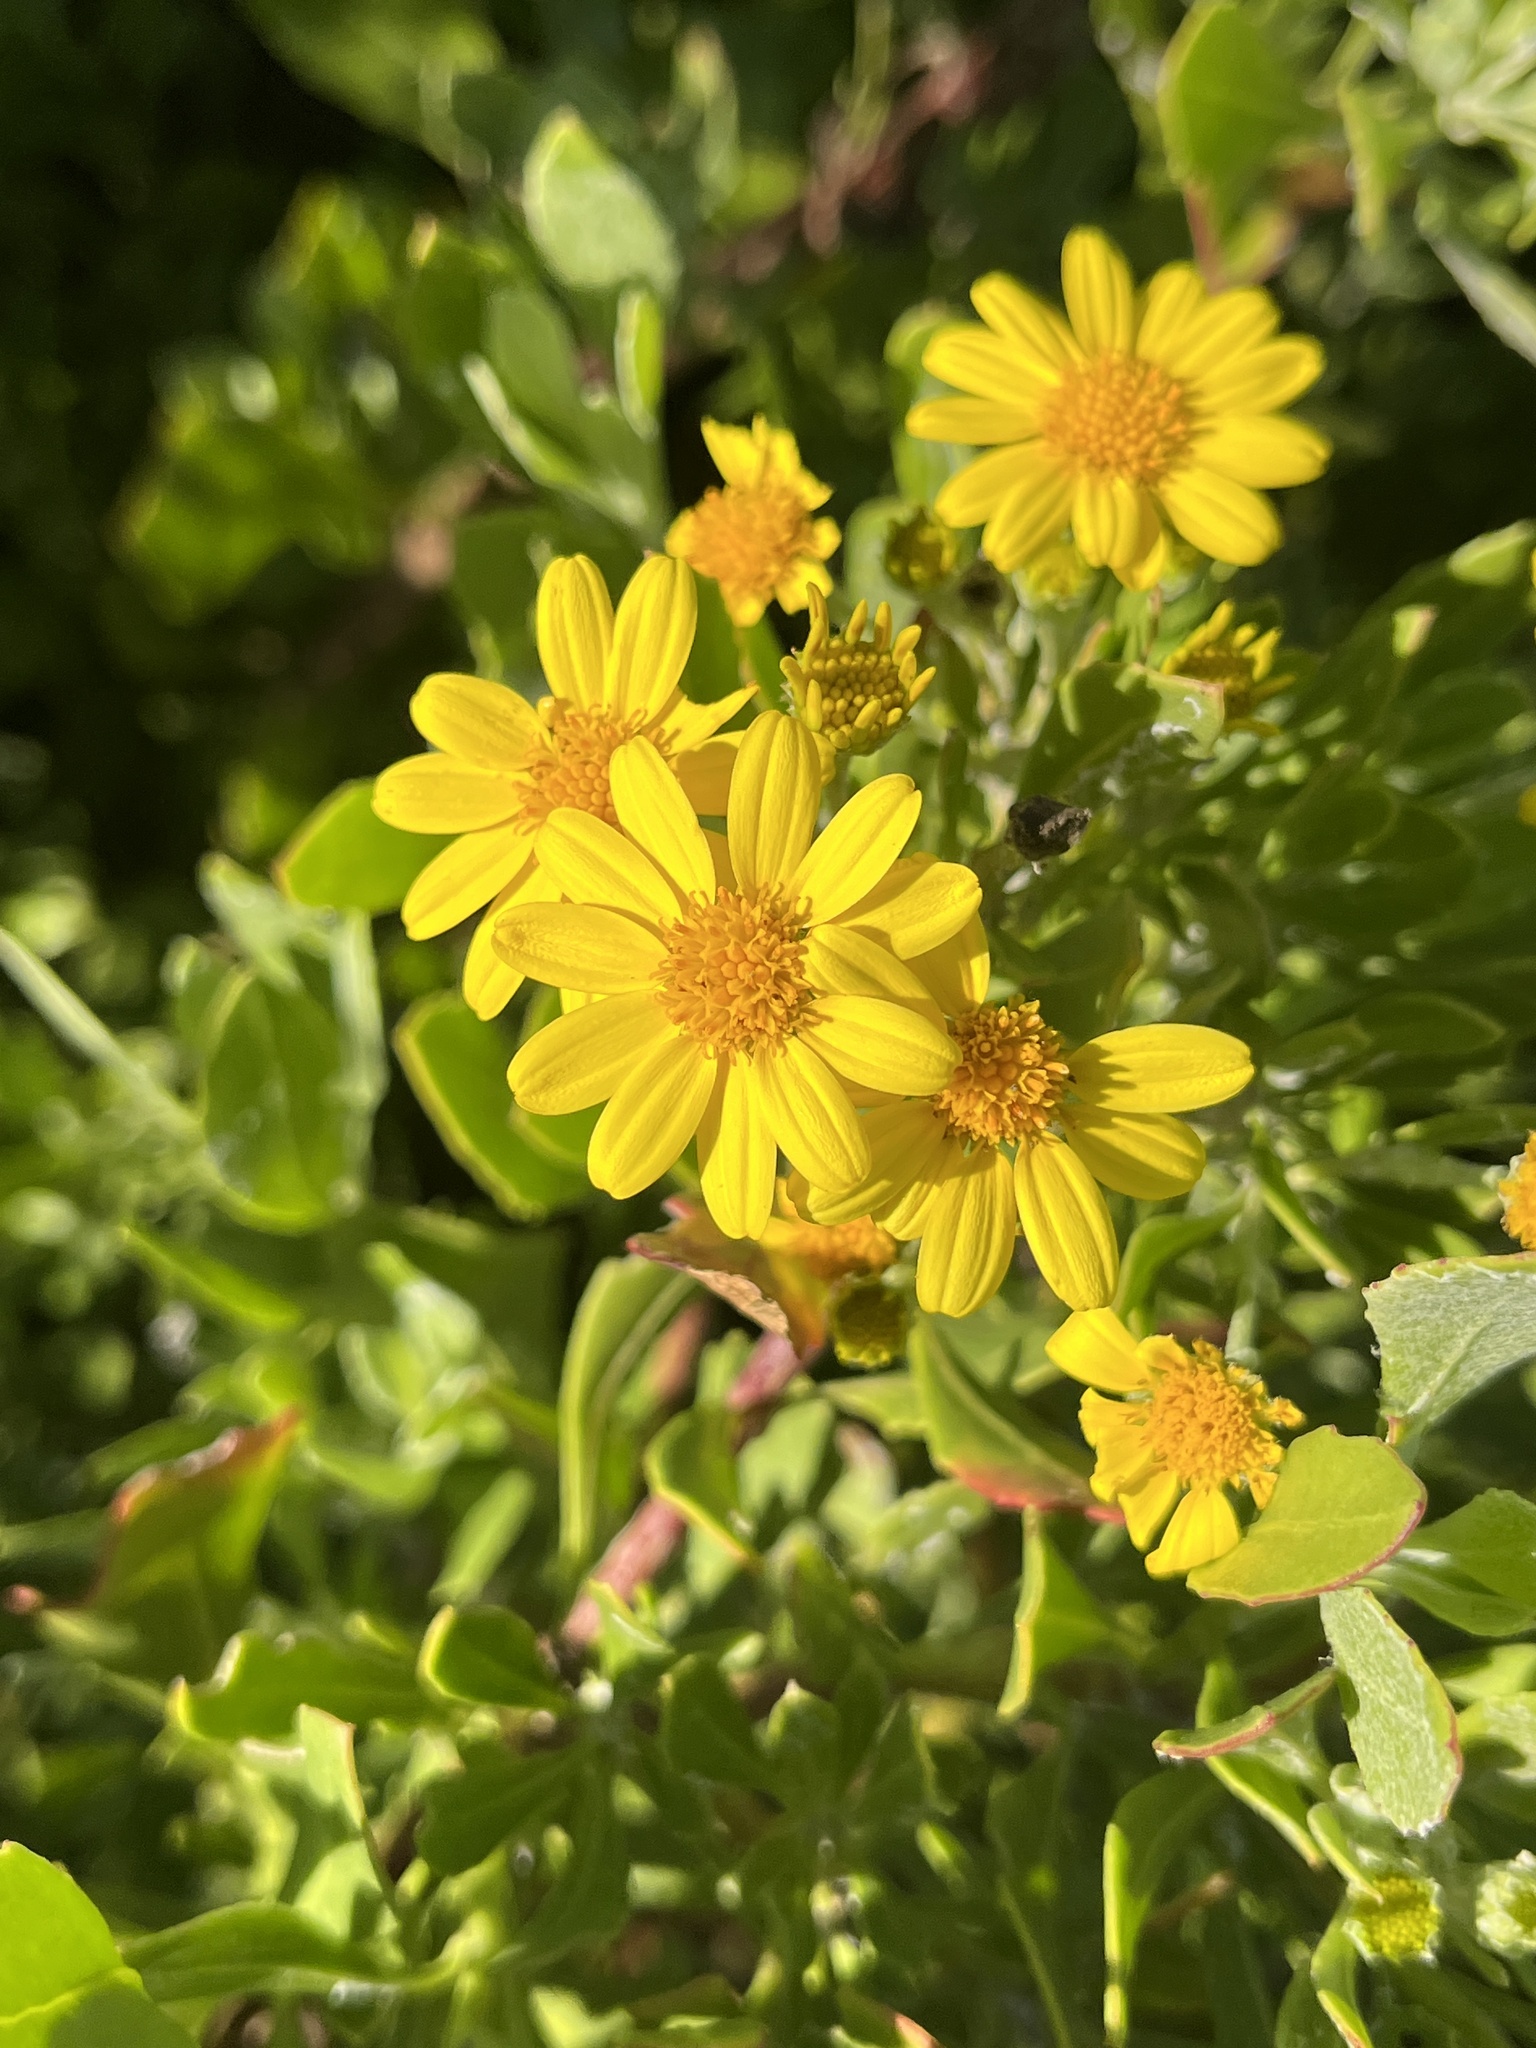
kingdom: Plantae
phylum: Tracheophyta
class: Magnoliopsida
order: Asterales
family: Asteraceae
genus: Osteospermum
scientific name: Osteospermum moniliferum
